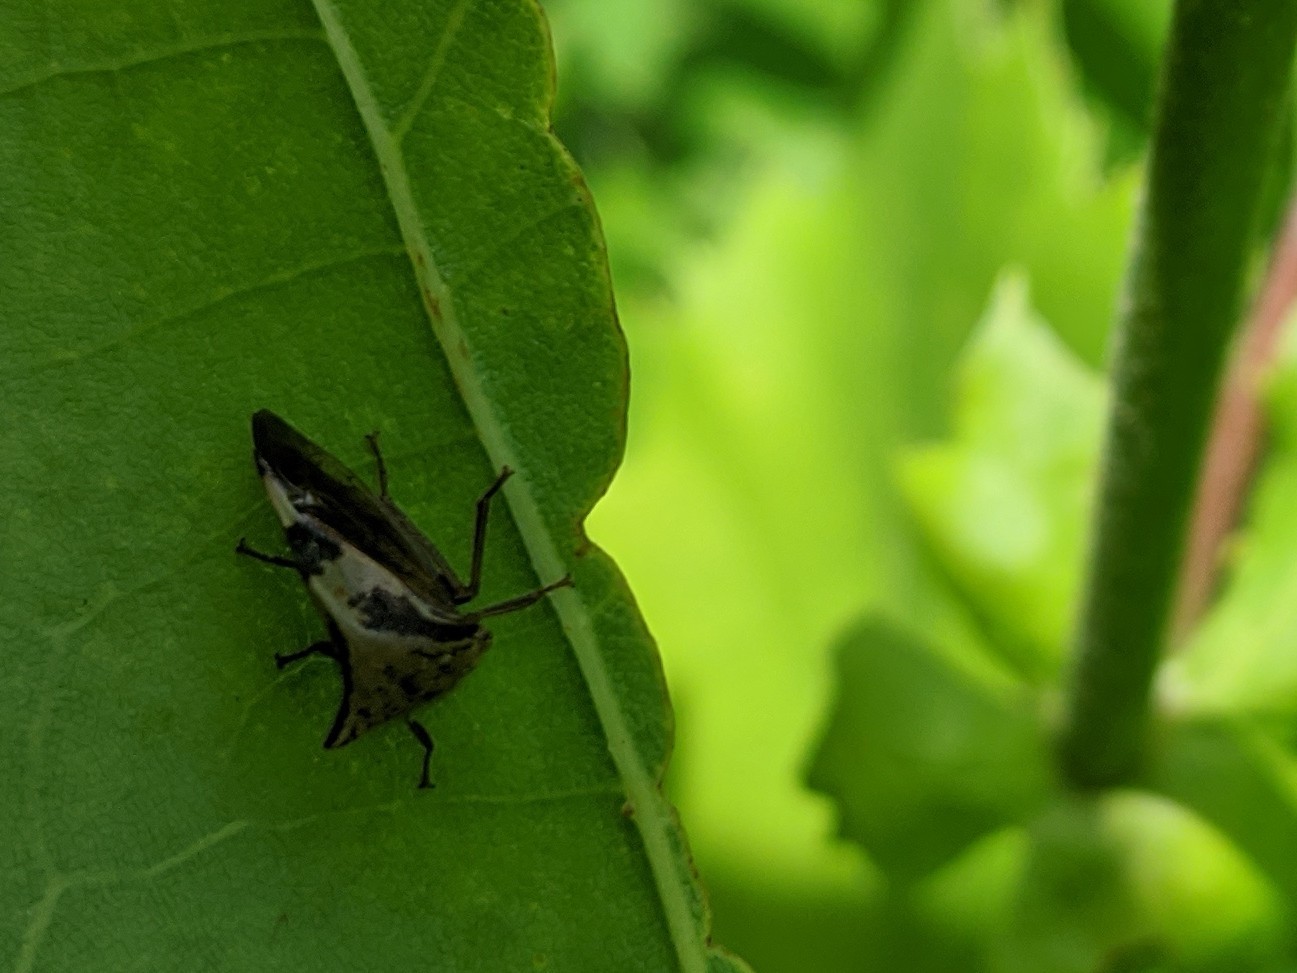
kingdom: Animalia
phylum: Arthropoda
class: Insecta
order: Hemiptera
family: Membracidae
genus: Stictocephala
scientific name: Stictocephala diceros
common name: Two-horned treehopper
